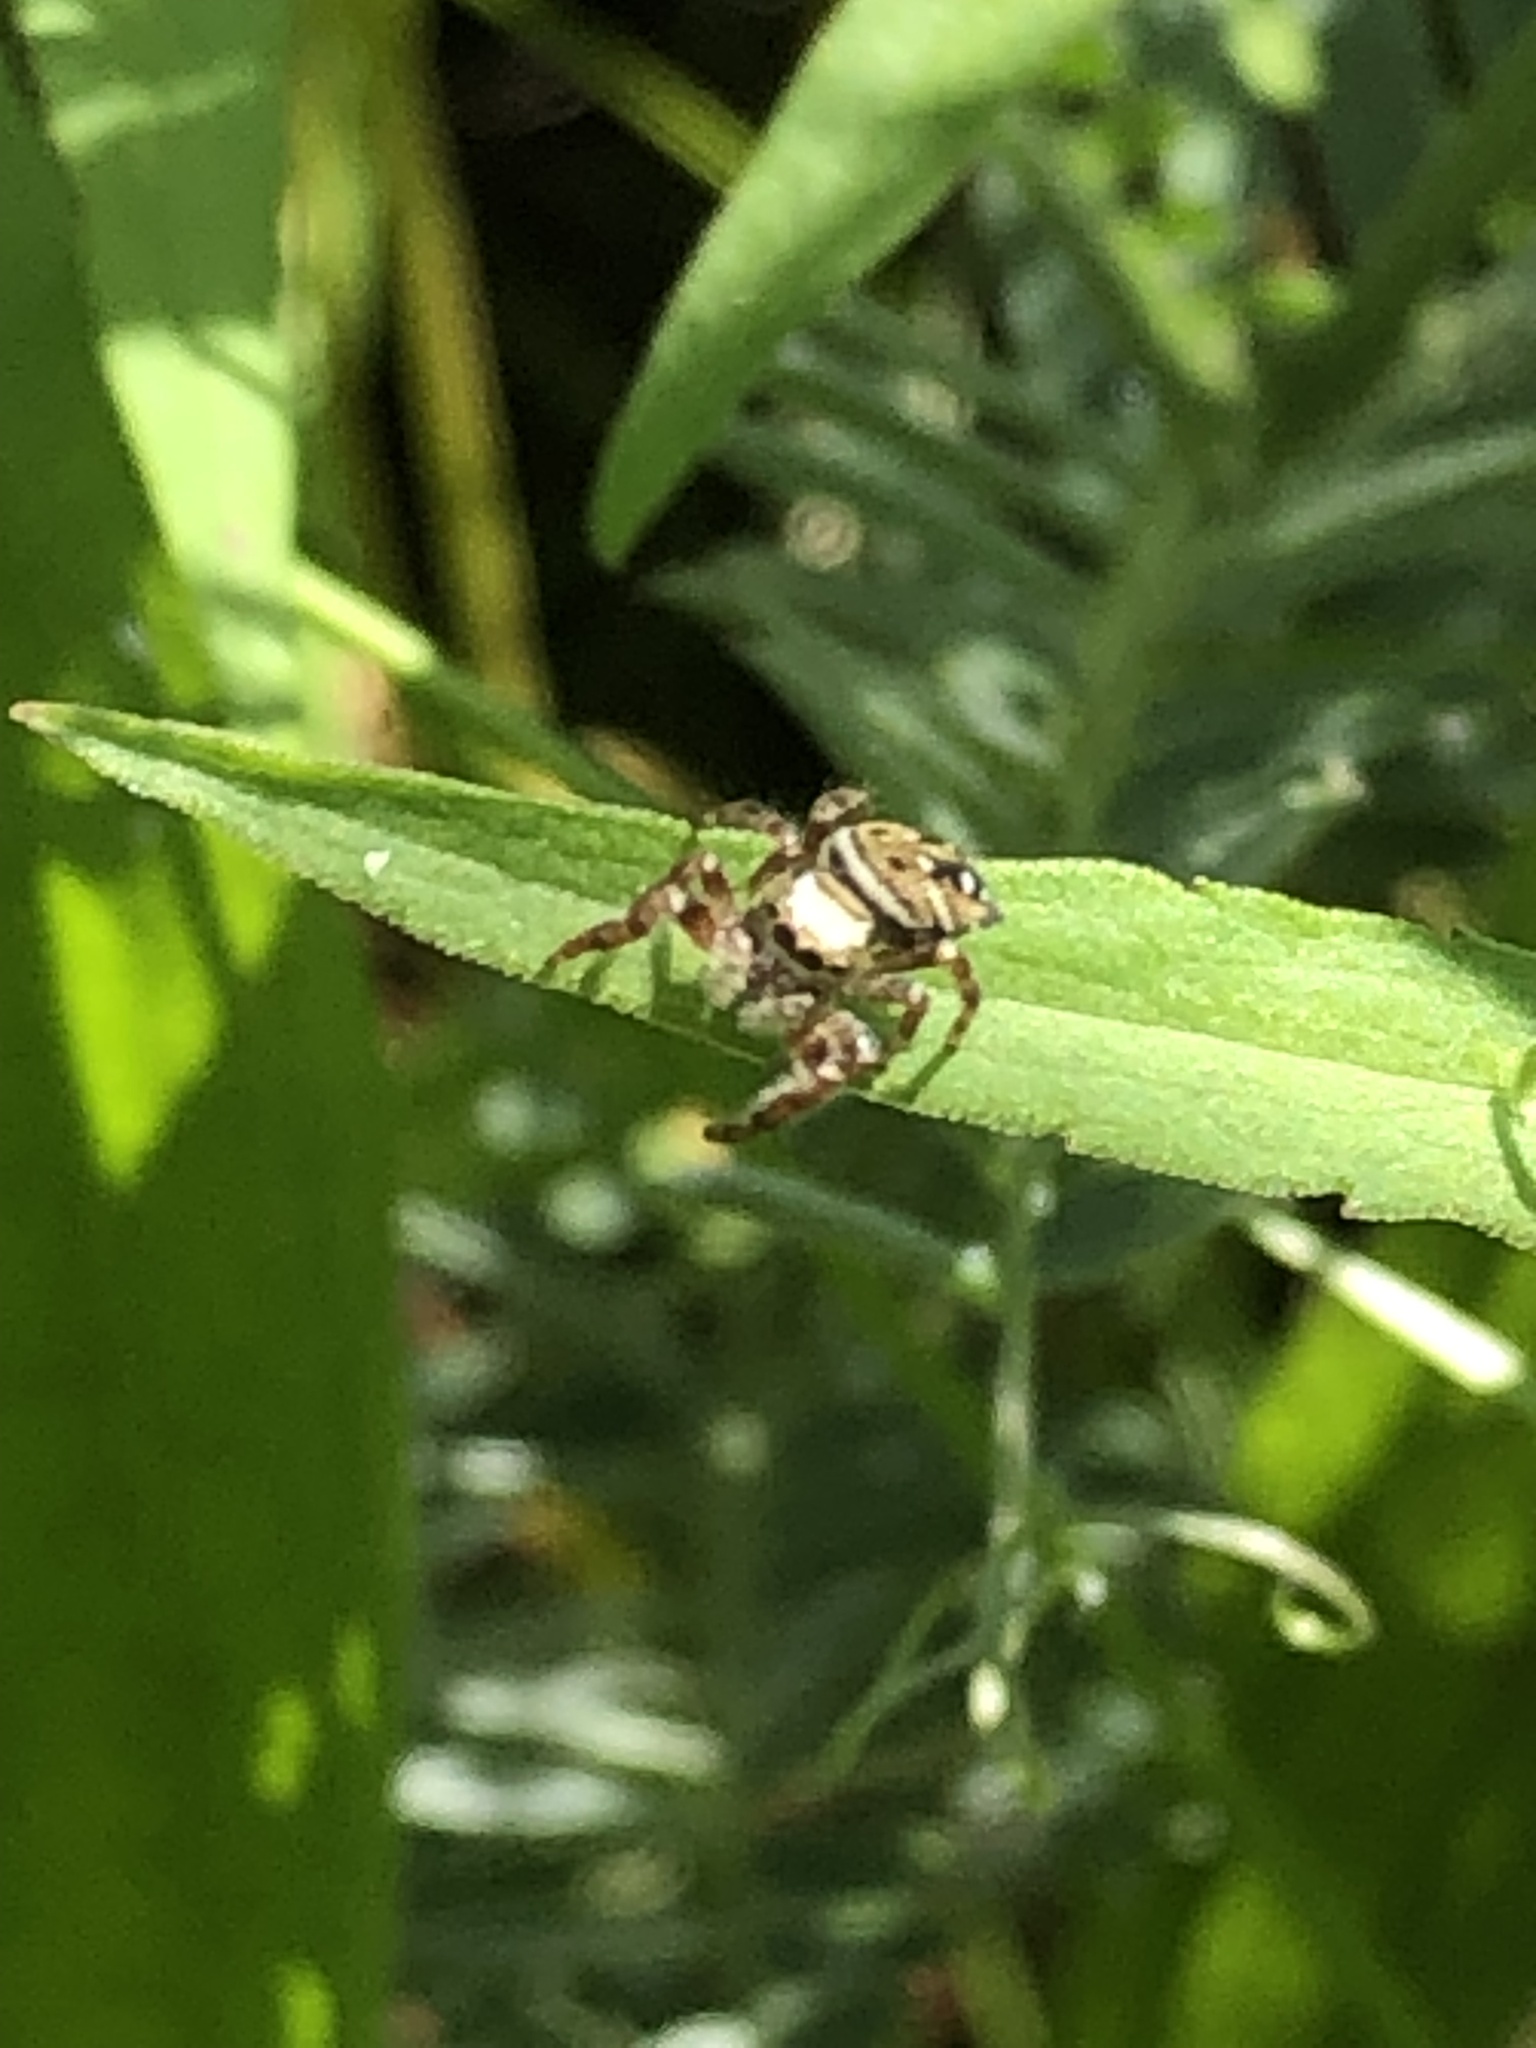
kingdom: Animalia
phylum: Arthropoda
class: Arachnida
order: Araneae
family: Salticidae
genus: Phidippus
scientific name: Phidippus clarus
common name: Brilliant jumping spider
